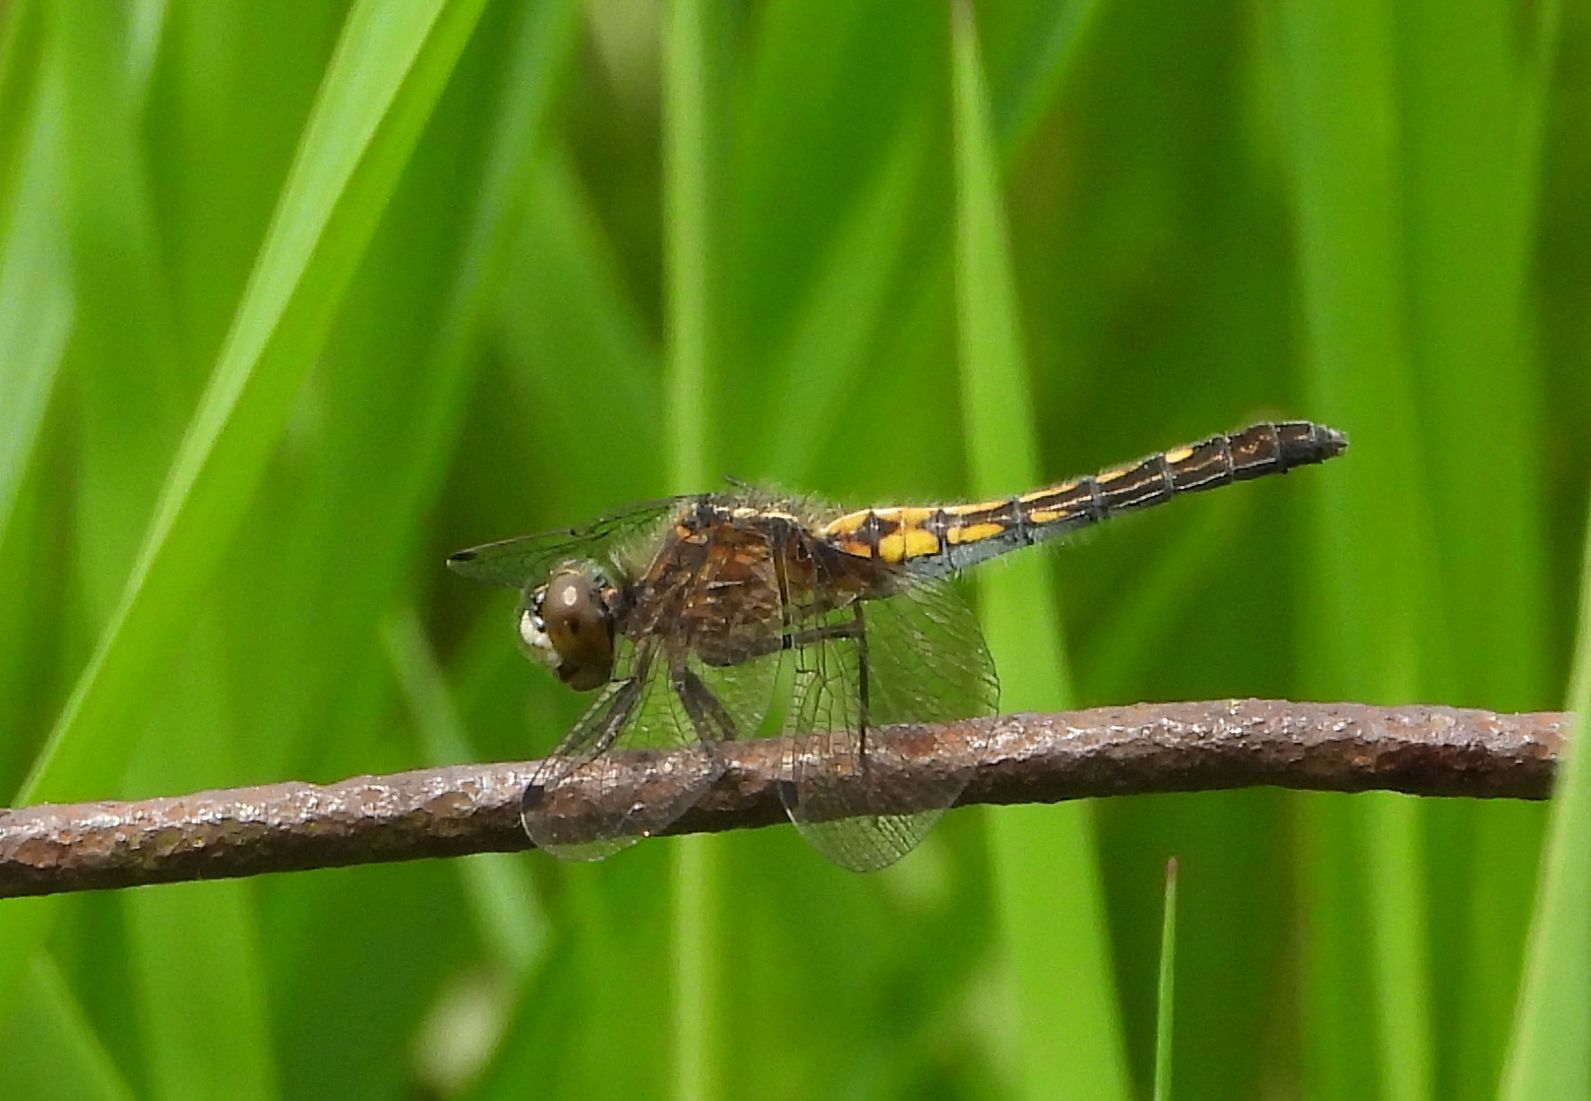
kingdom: Animalia
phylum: Arthropoda
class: Insecta
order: Odonata
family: Libellulidae
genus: Leucorrhinia
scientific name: Leucorrhinia intacta
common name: Dot-tailed whiteface
